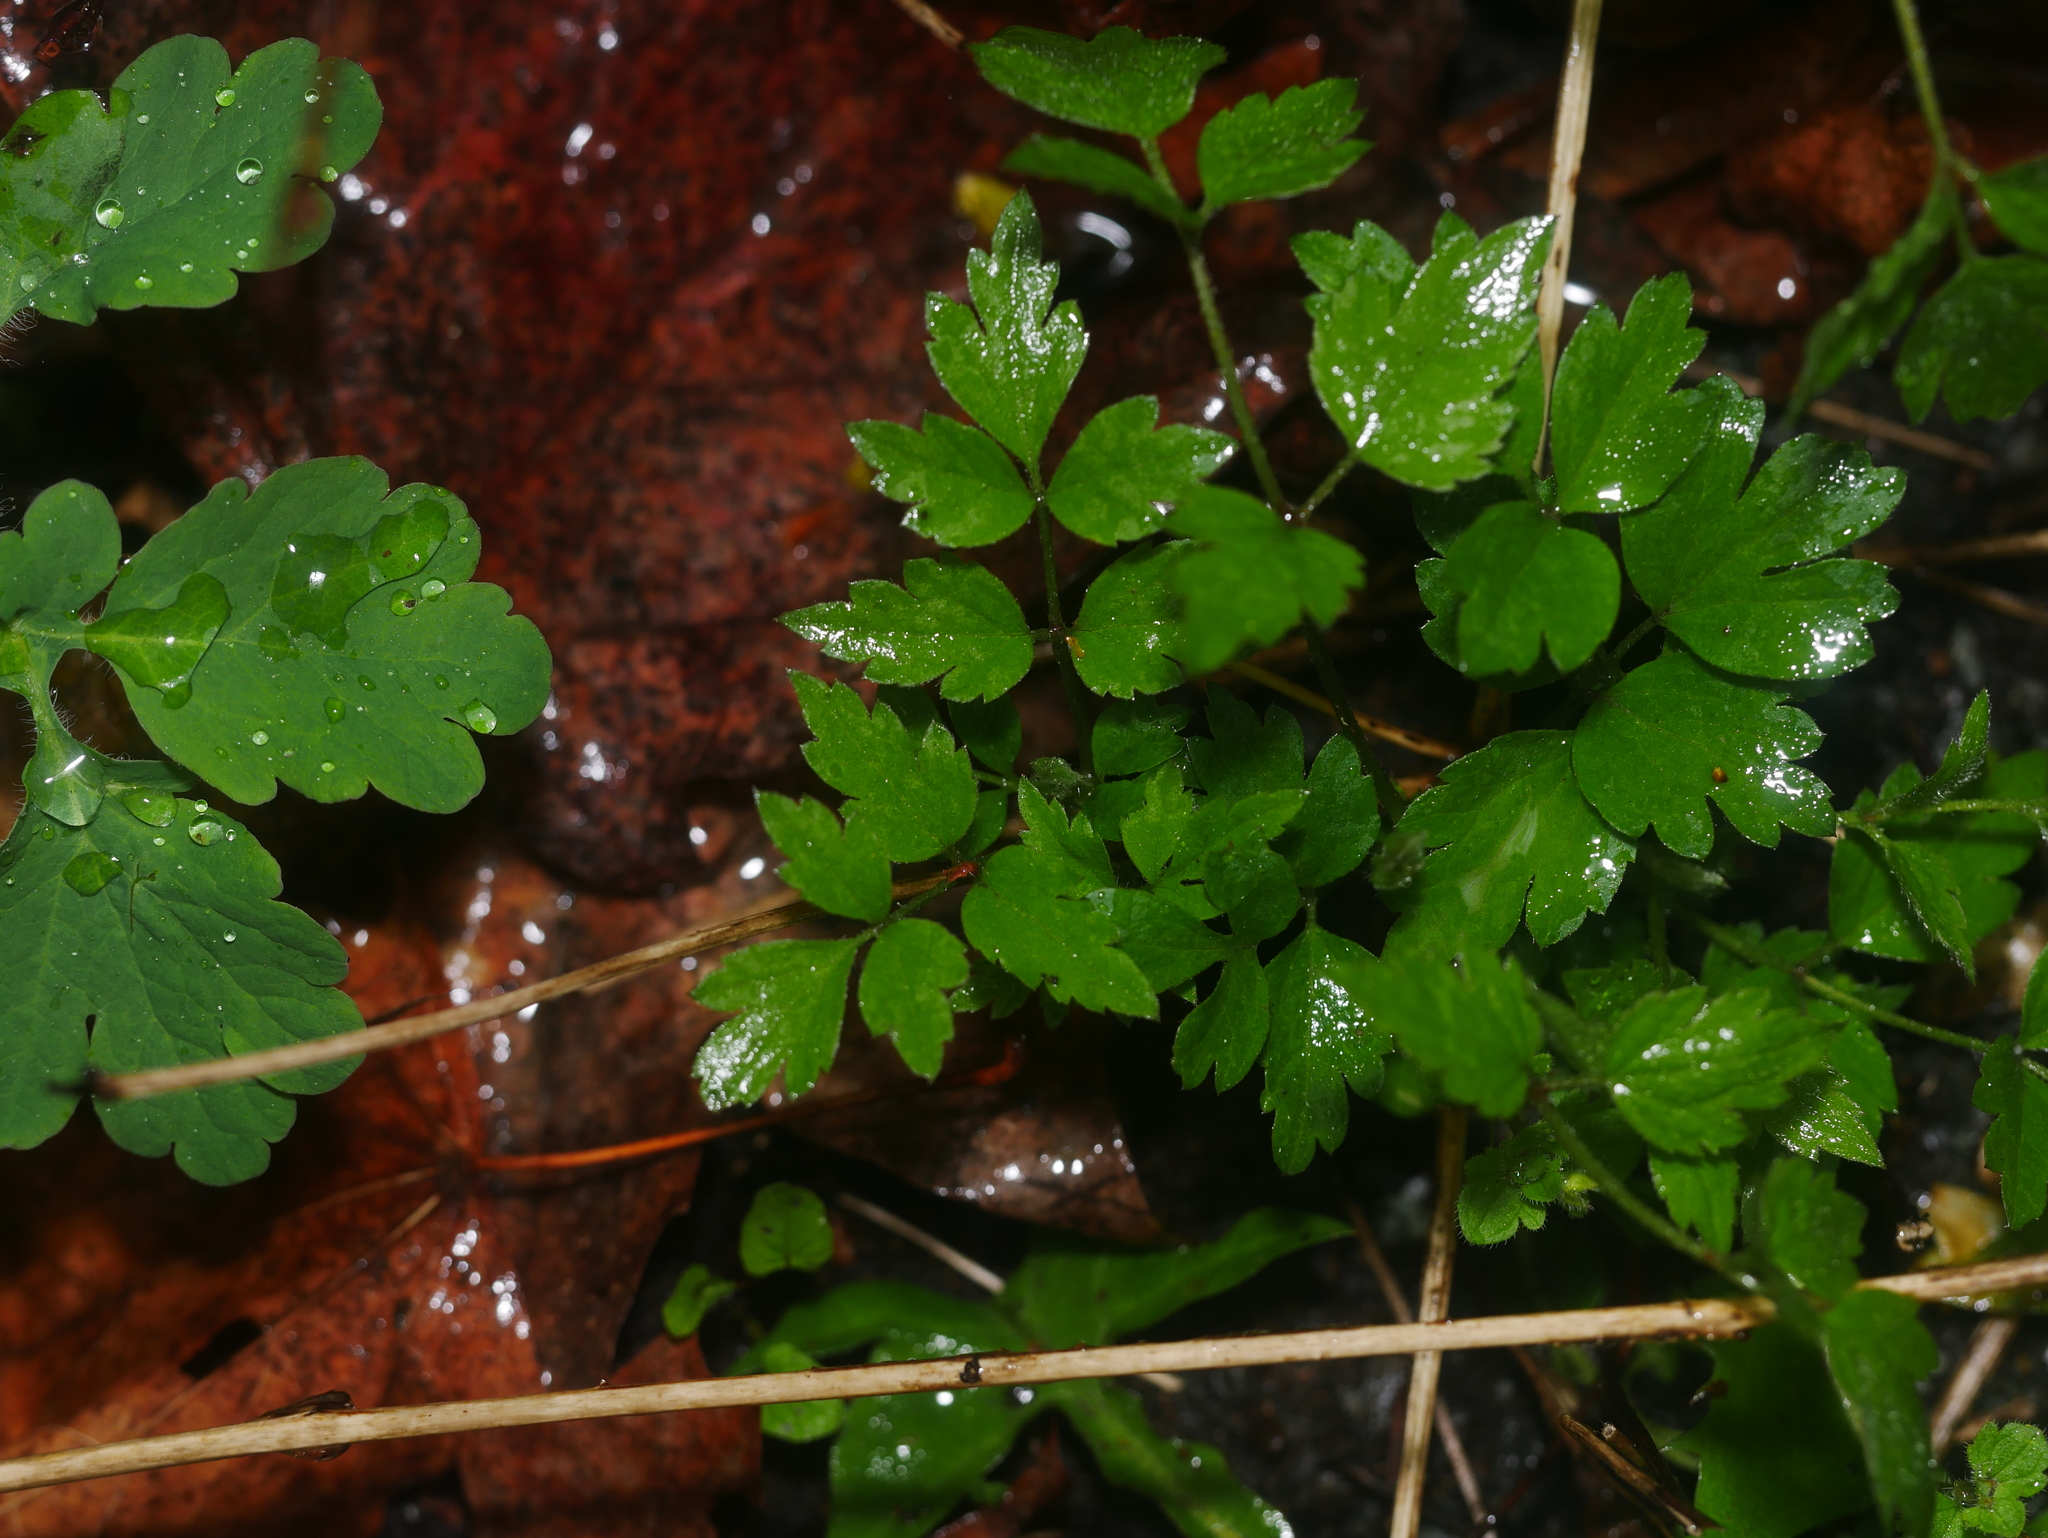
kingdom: Plantae
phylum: Tracheophyta
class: Magnoliopsida
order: Ranunculales
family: Ranunculaceae
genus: Clematis
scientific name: Clematis vitalba
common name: Evergreen clematis
